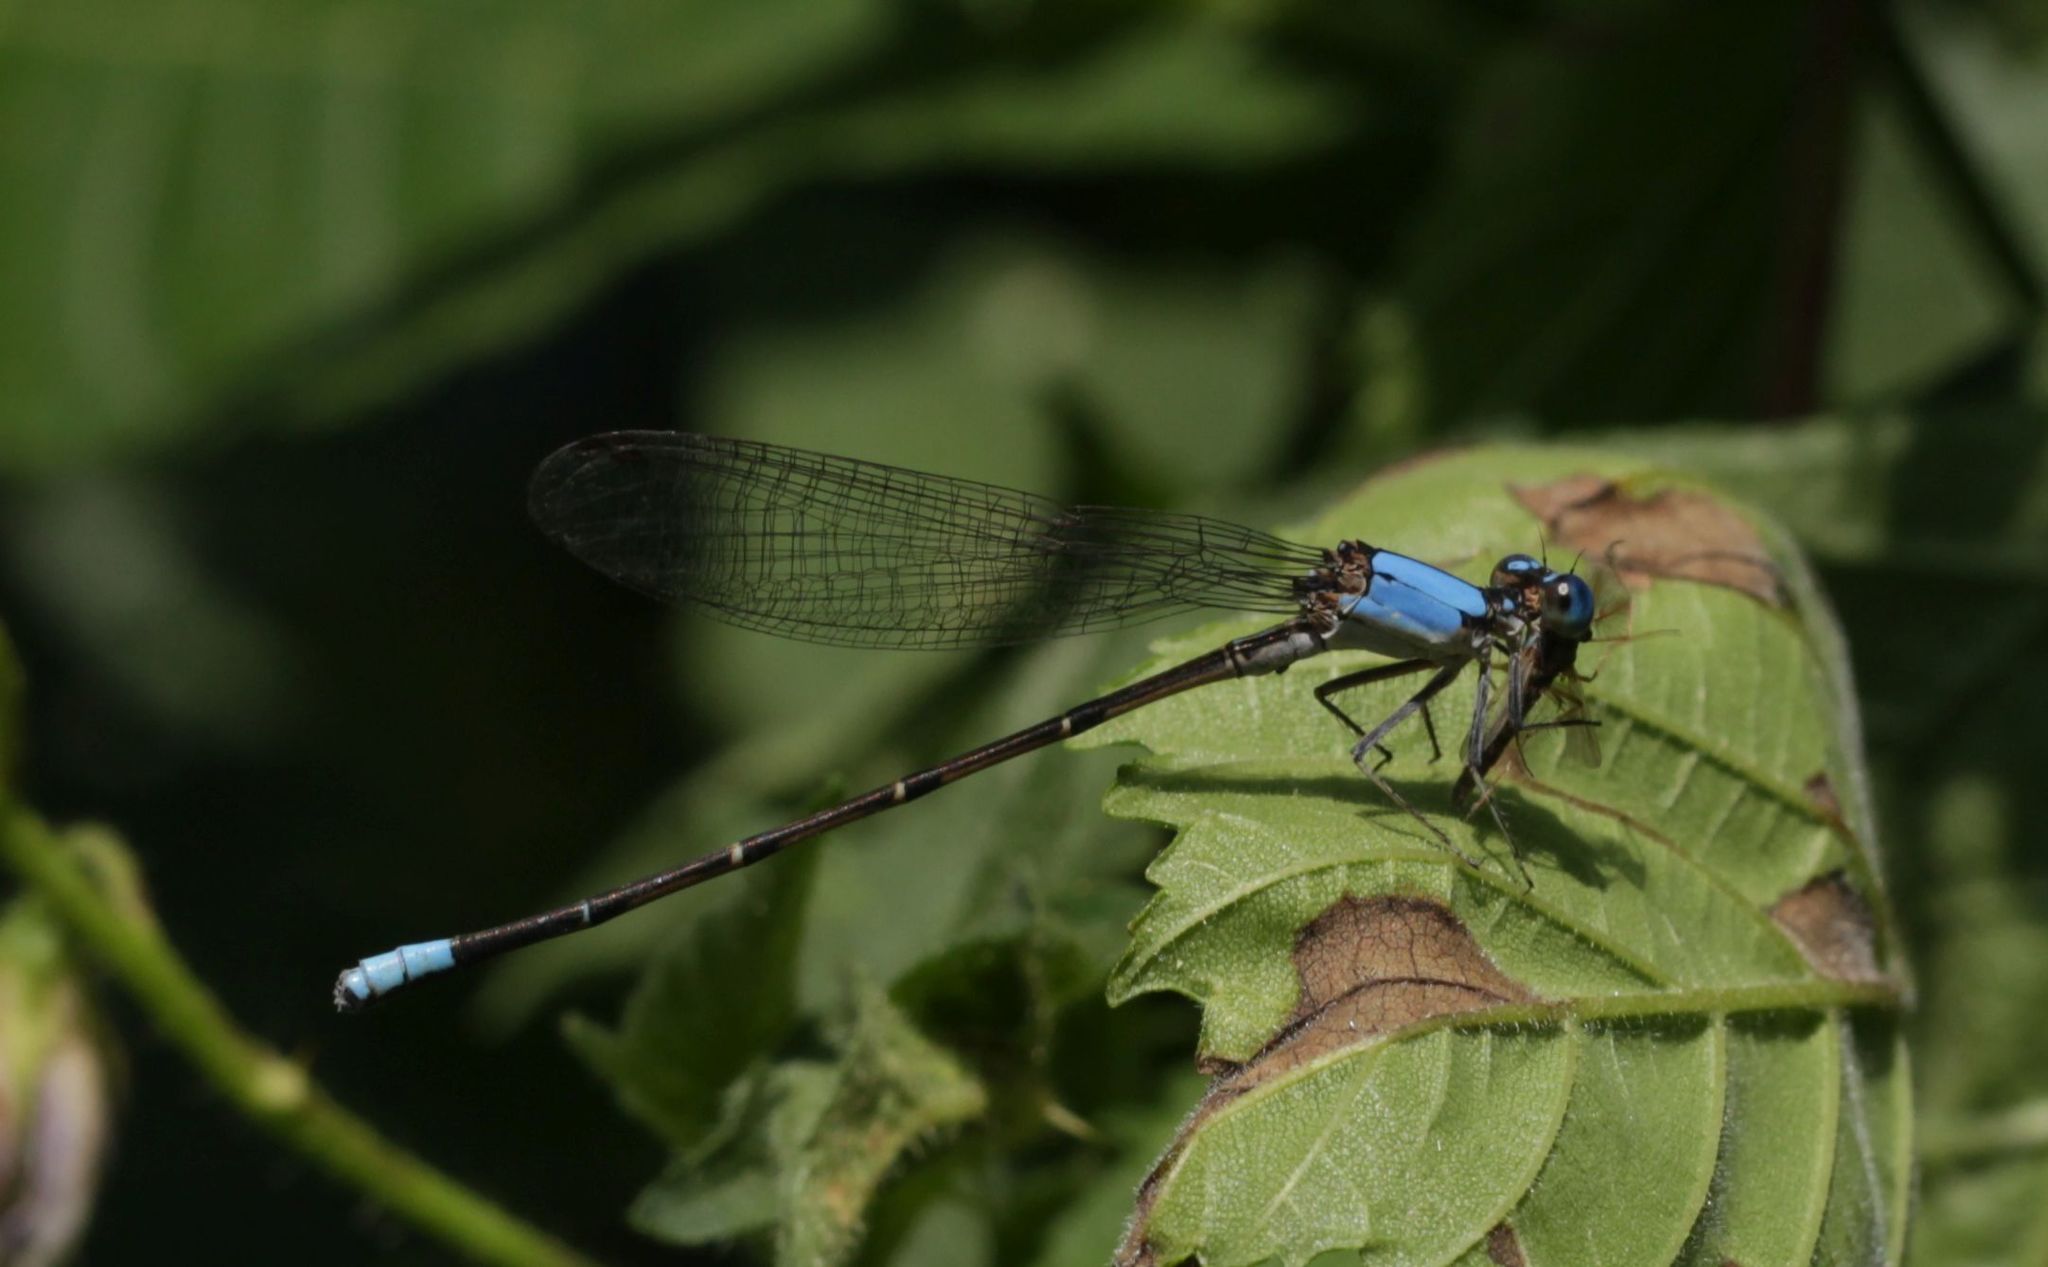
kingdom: Animalia
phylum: Arthropoda
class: Insecta
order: Odonata
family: Coenagrionidae
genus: Argia
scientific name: Argia apicalis
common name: Blue-fronted dancer
